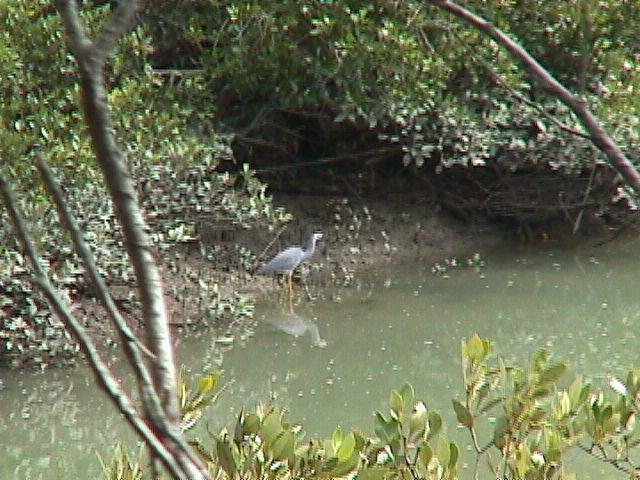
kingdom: Animalia
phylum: Chordata
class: Aves
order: Pelecaniformes
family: Ardeidae
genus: Egretta
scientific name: Egretta novaehollandiae
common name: White-faced heron
